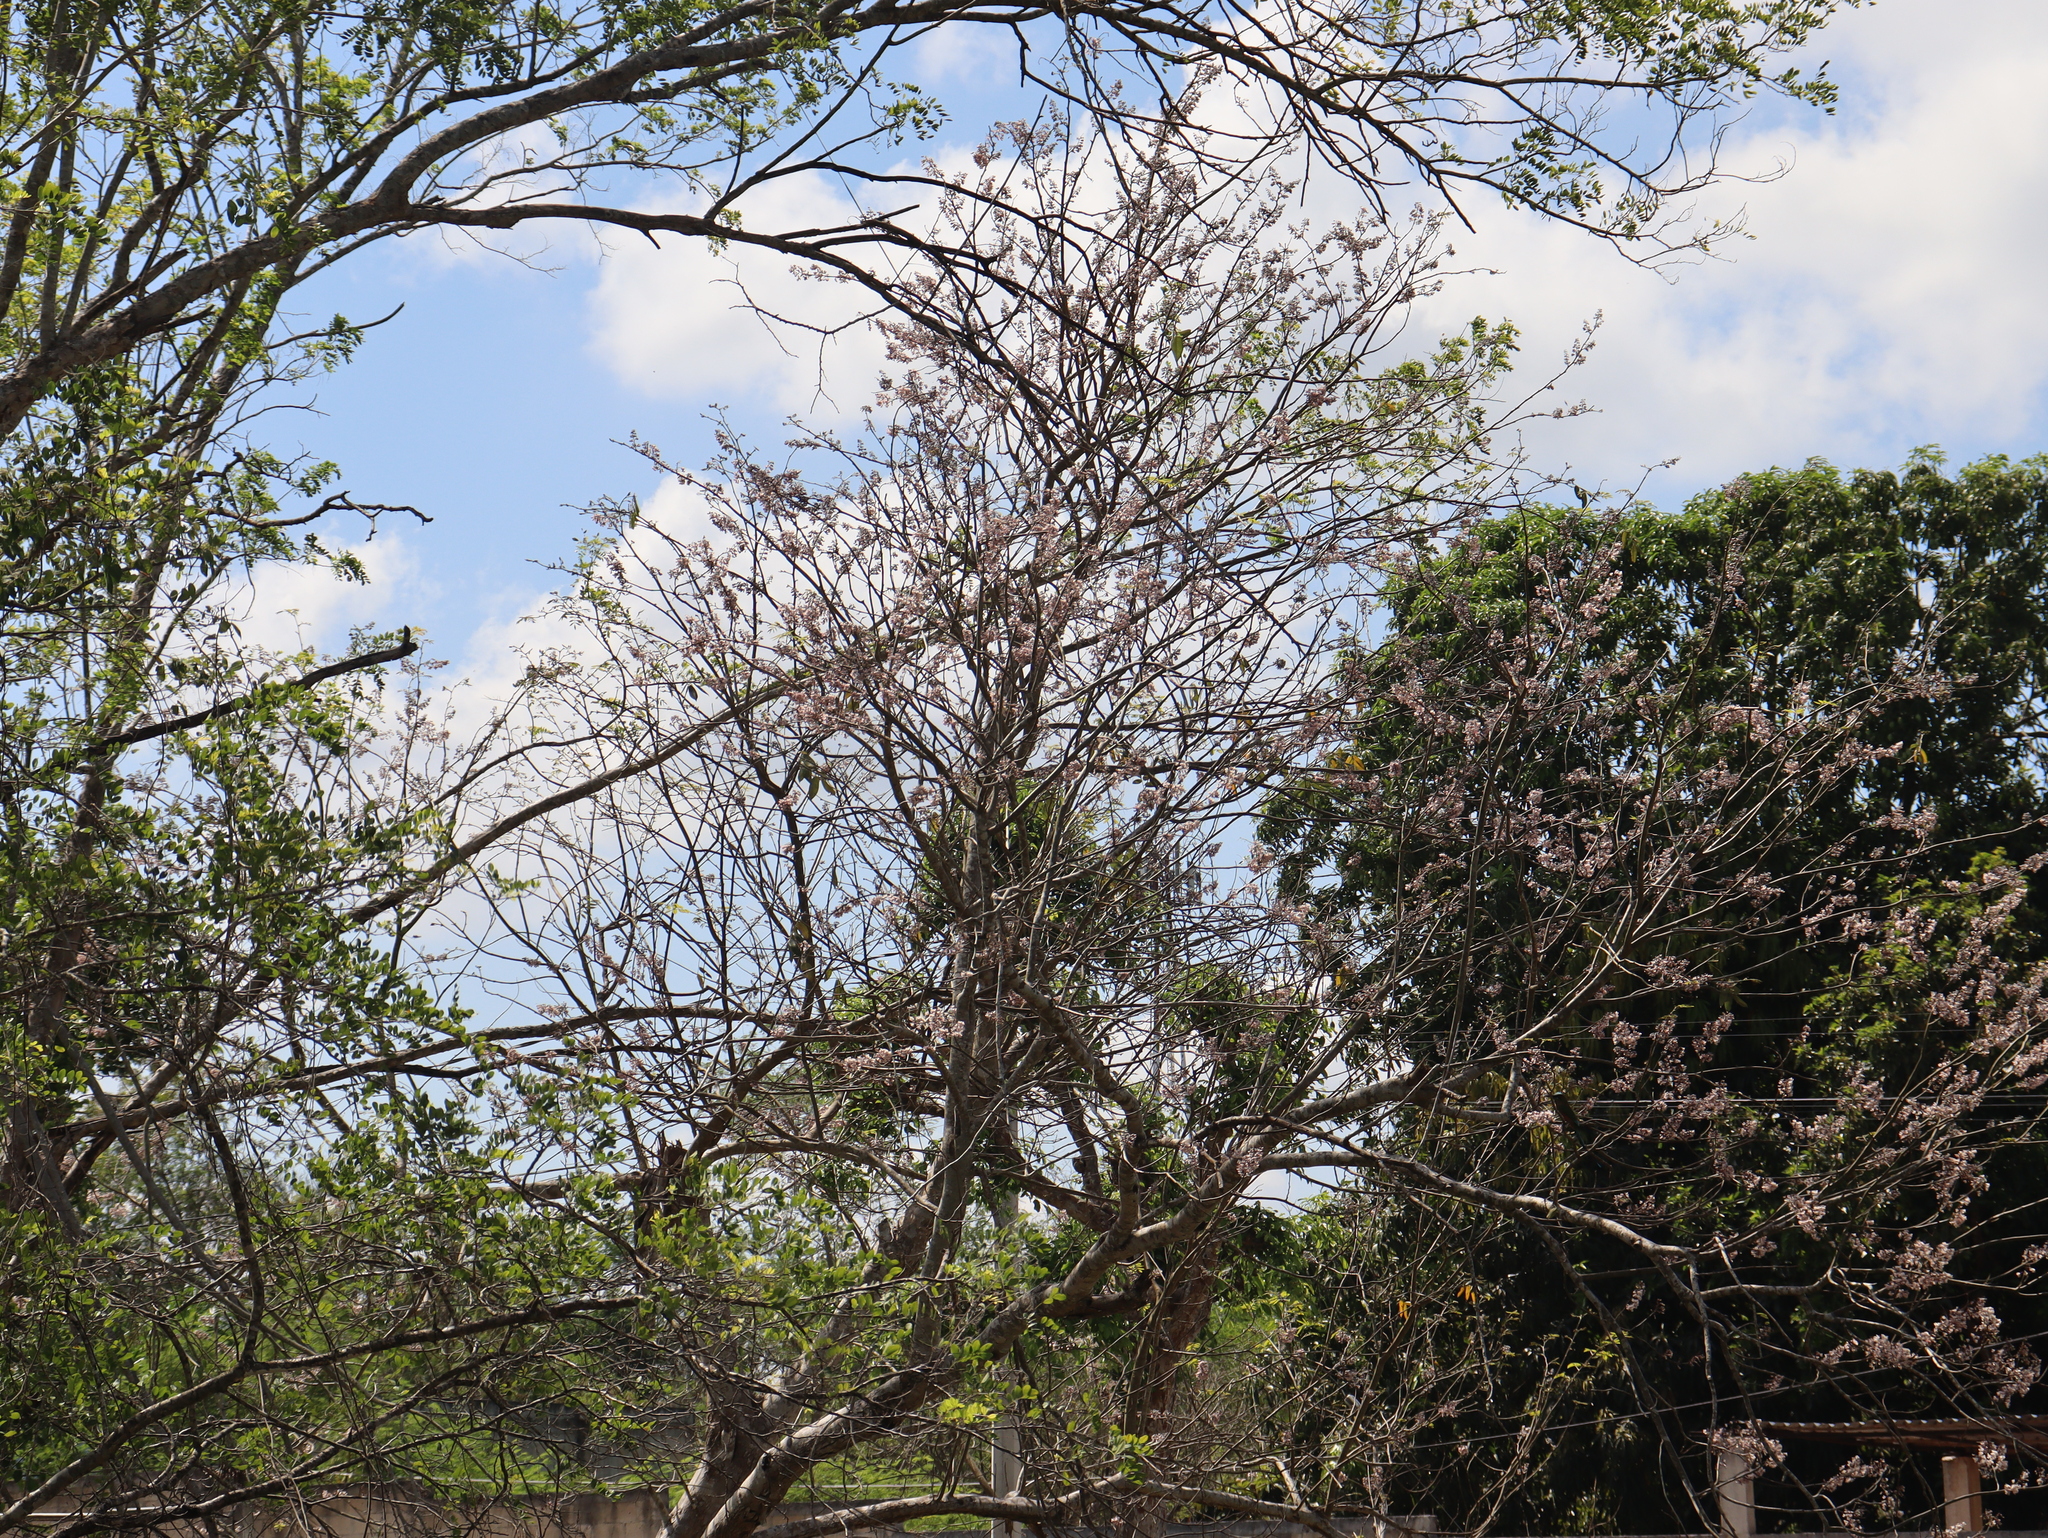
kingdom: Plantae
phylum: Tracheophyta
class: Magnoliopsida
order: Fabales
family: Fabaceae
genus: Gliricidia
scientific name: Gliricidia sepium
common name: Quickstick
